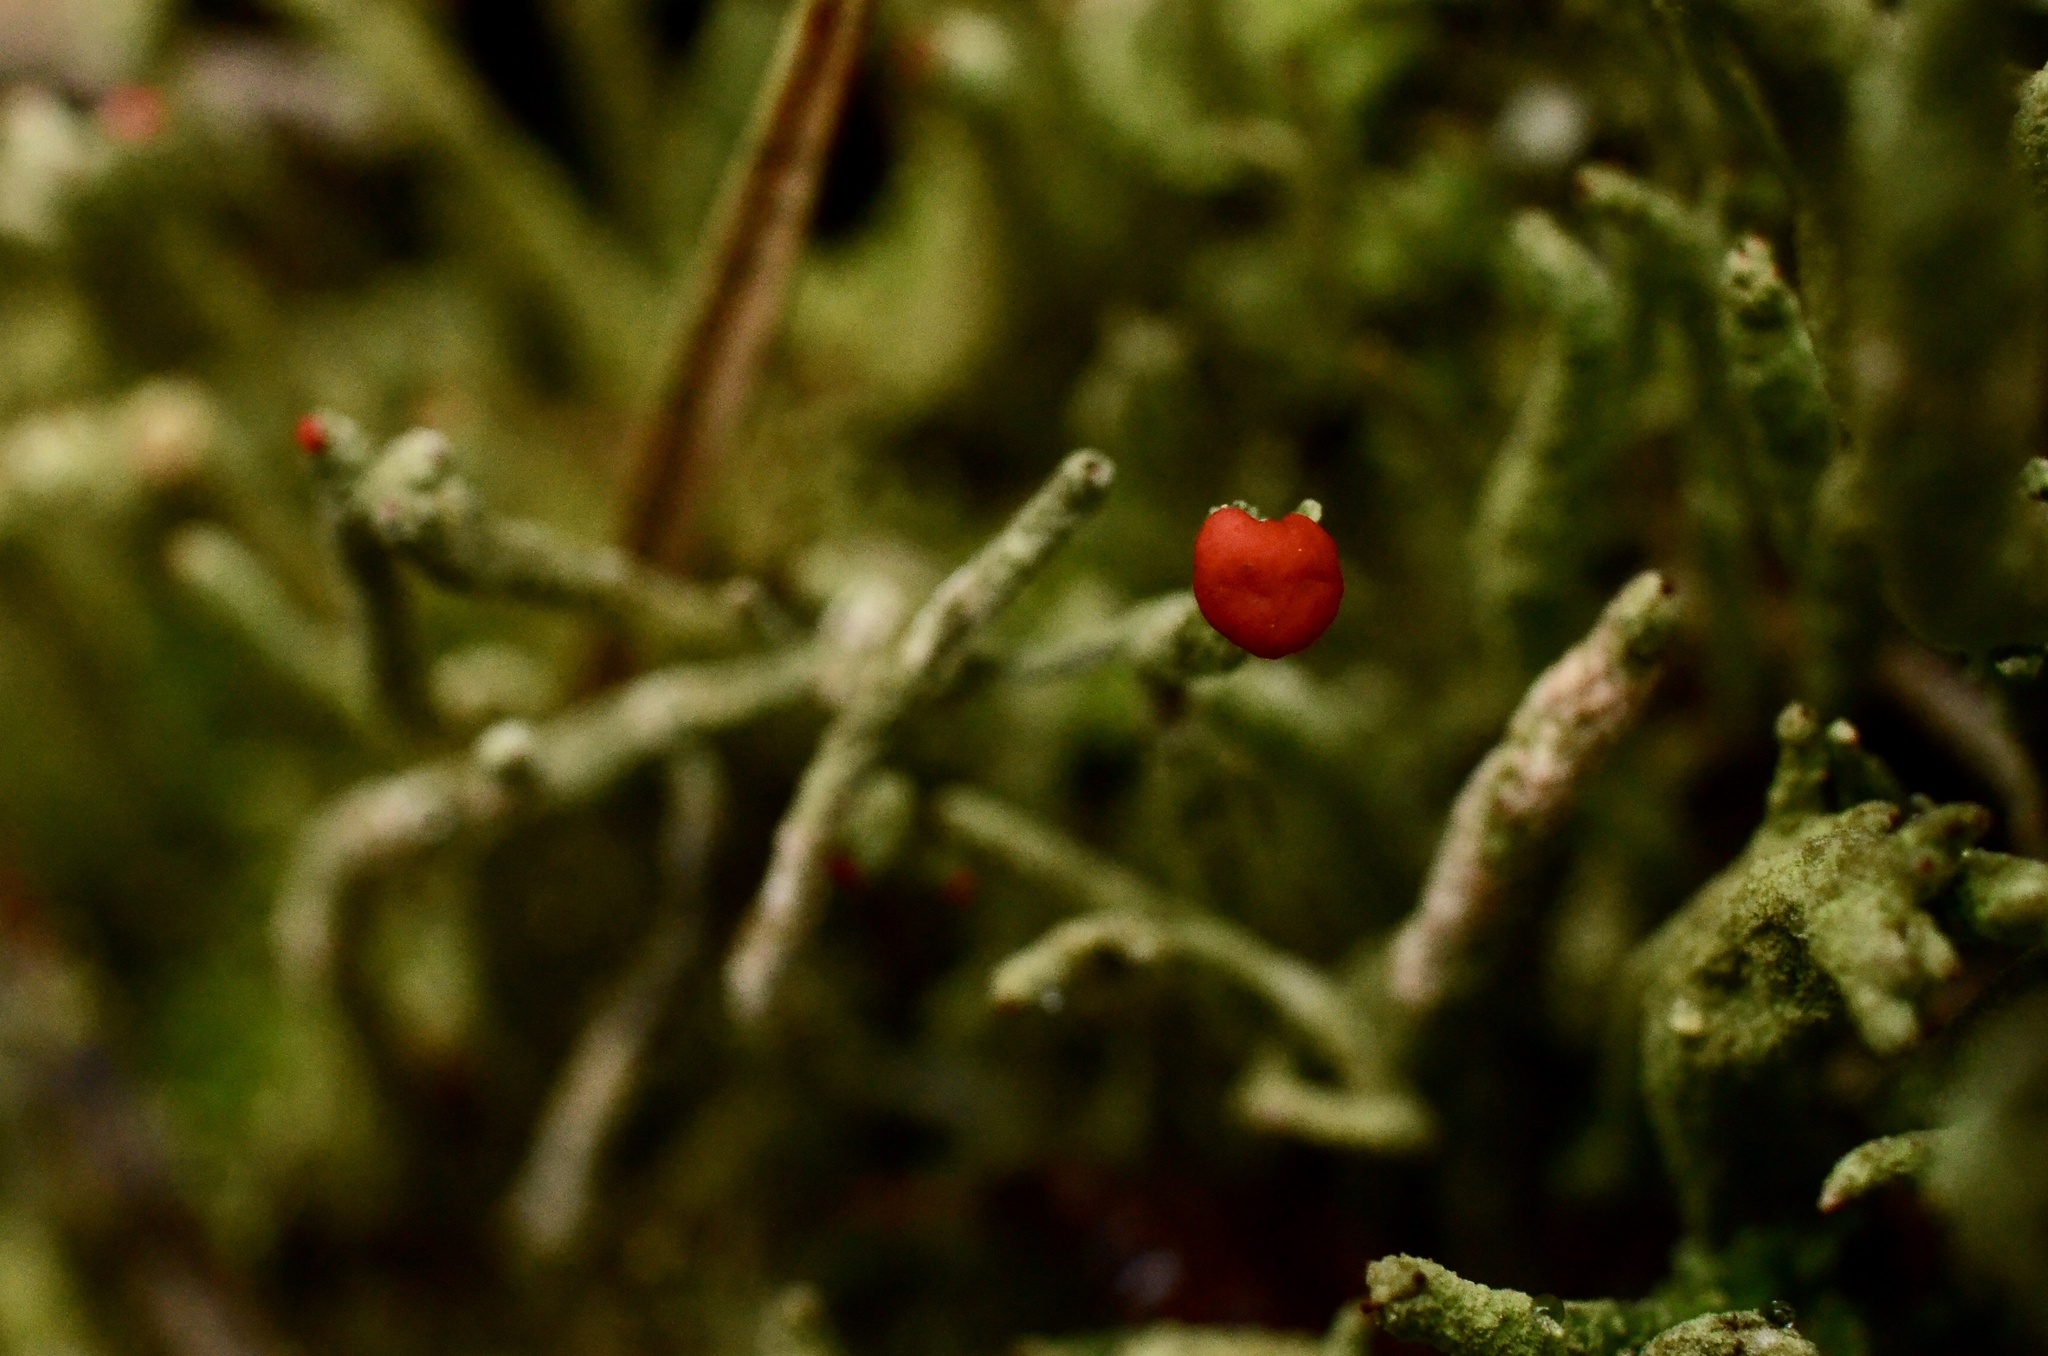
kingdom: Fungi
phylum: Ascomycota
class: Lecanoromycetes
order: Lecanorales
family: Cladoniaceae
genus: Cladonia
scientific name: Cladonia macilenta
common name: Lipstick powderhorn
